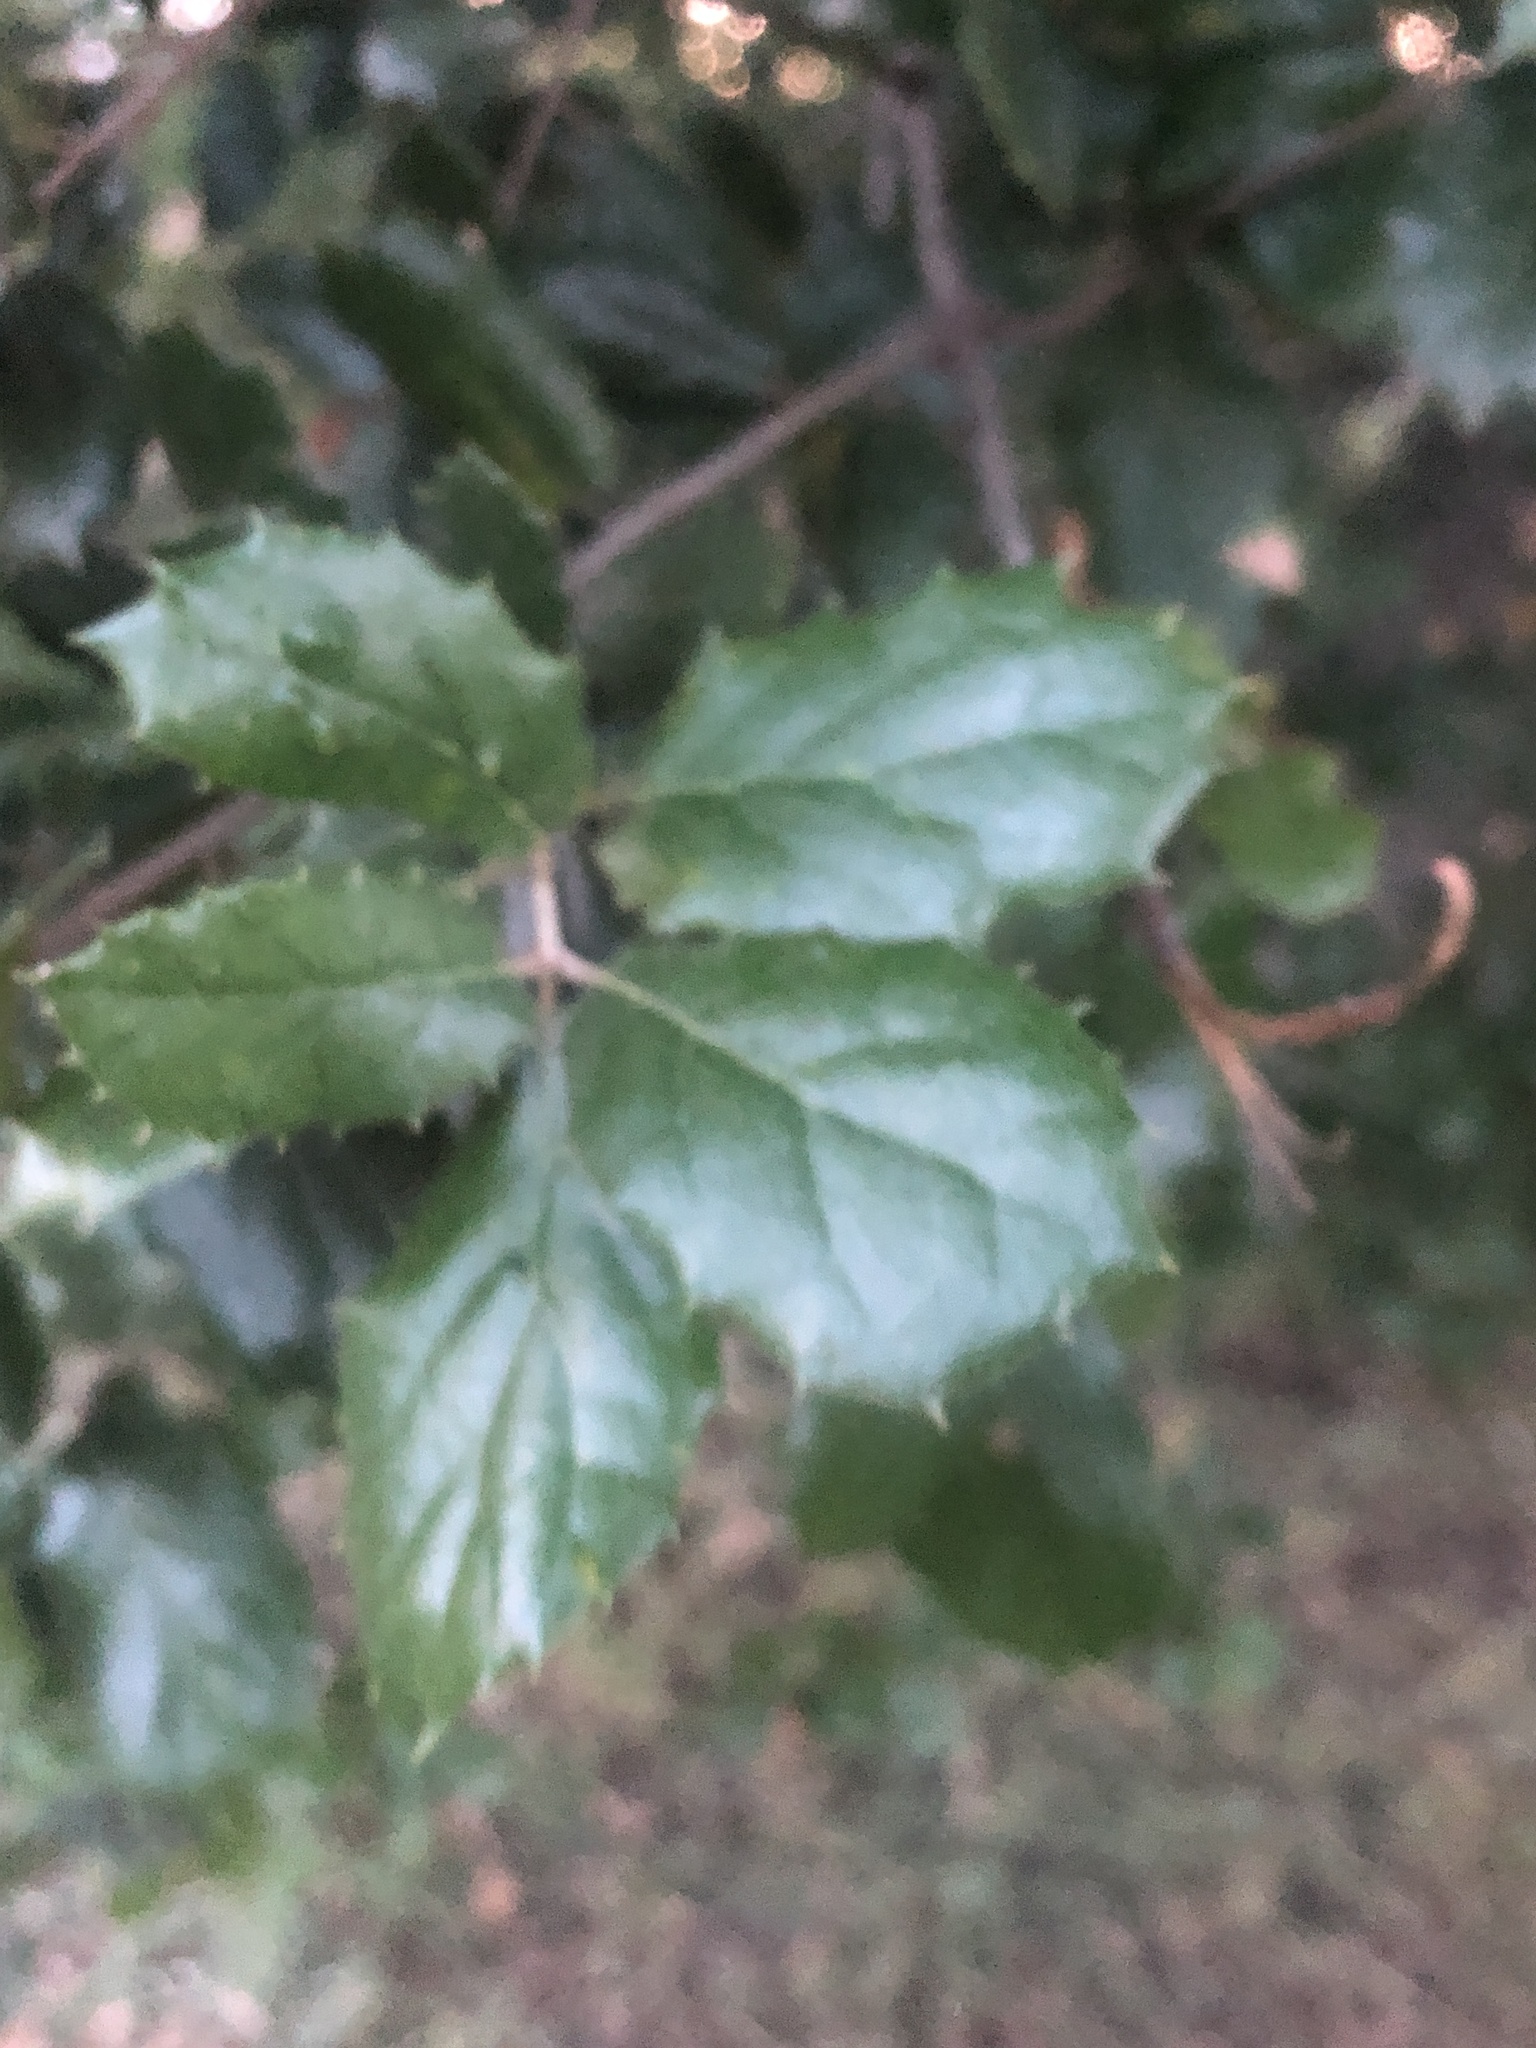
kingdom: Plantae
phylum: Tracheophyta
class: Magnoliopsida
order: Fagales
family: Fagaceae
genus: Quercus
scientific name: Quercus agrifolia
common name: California live oak
